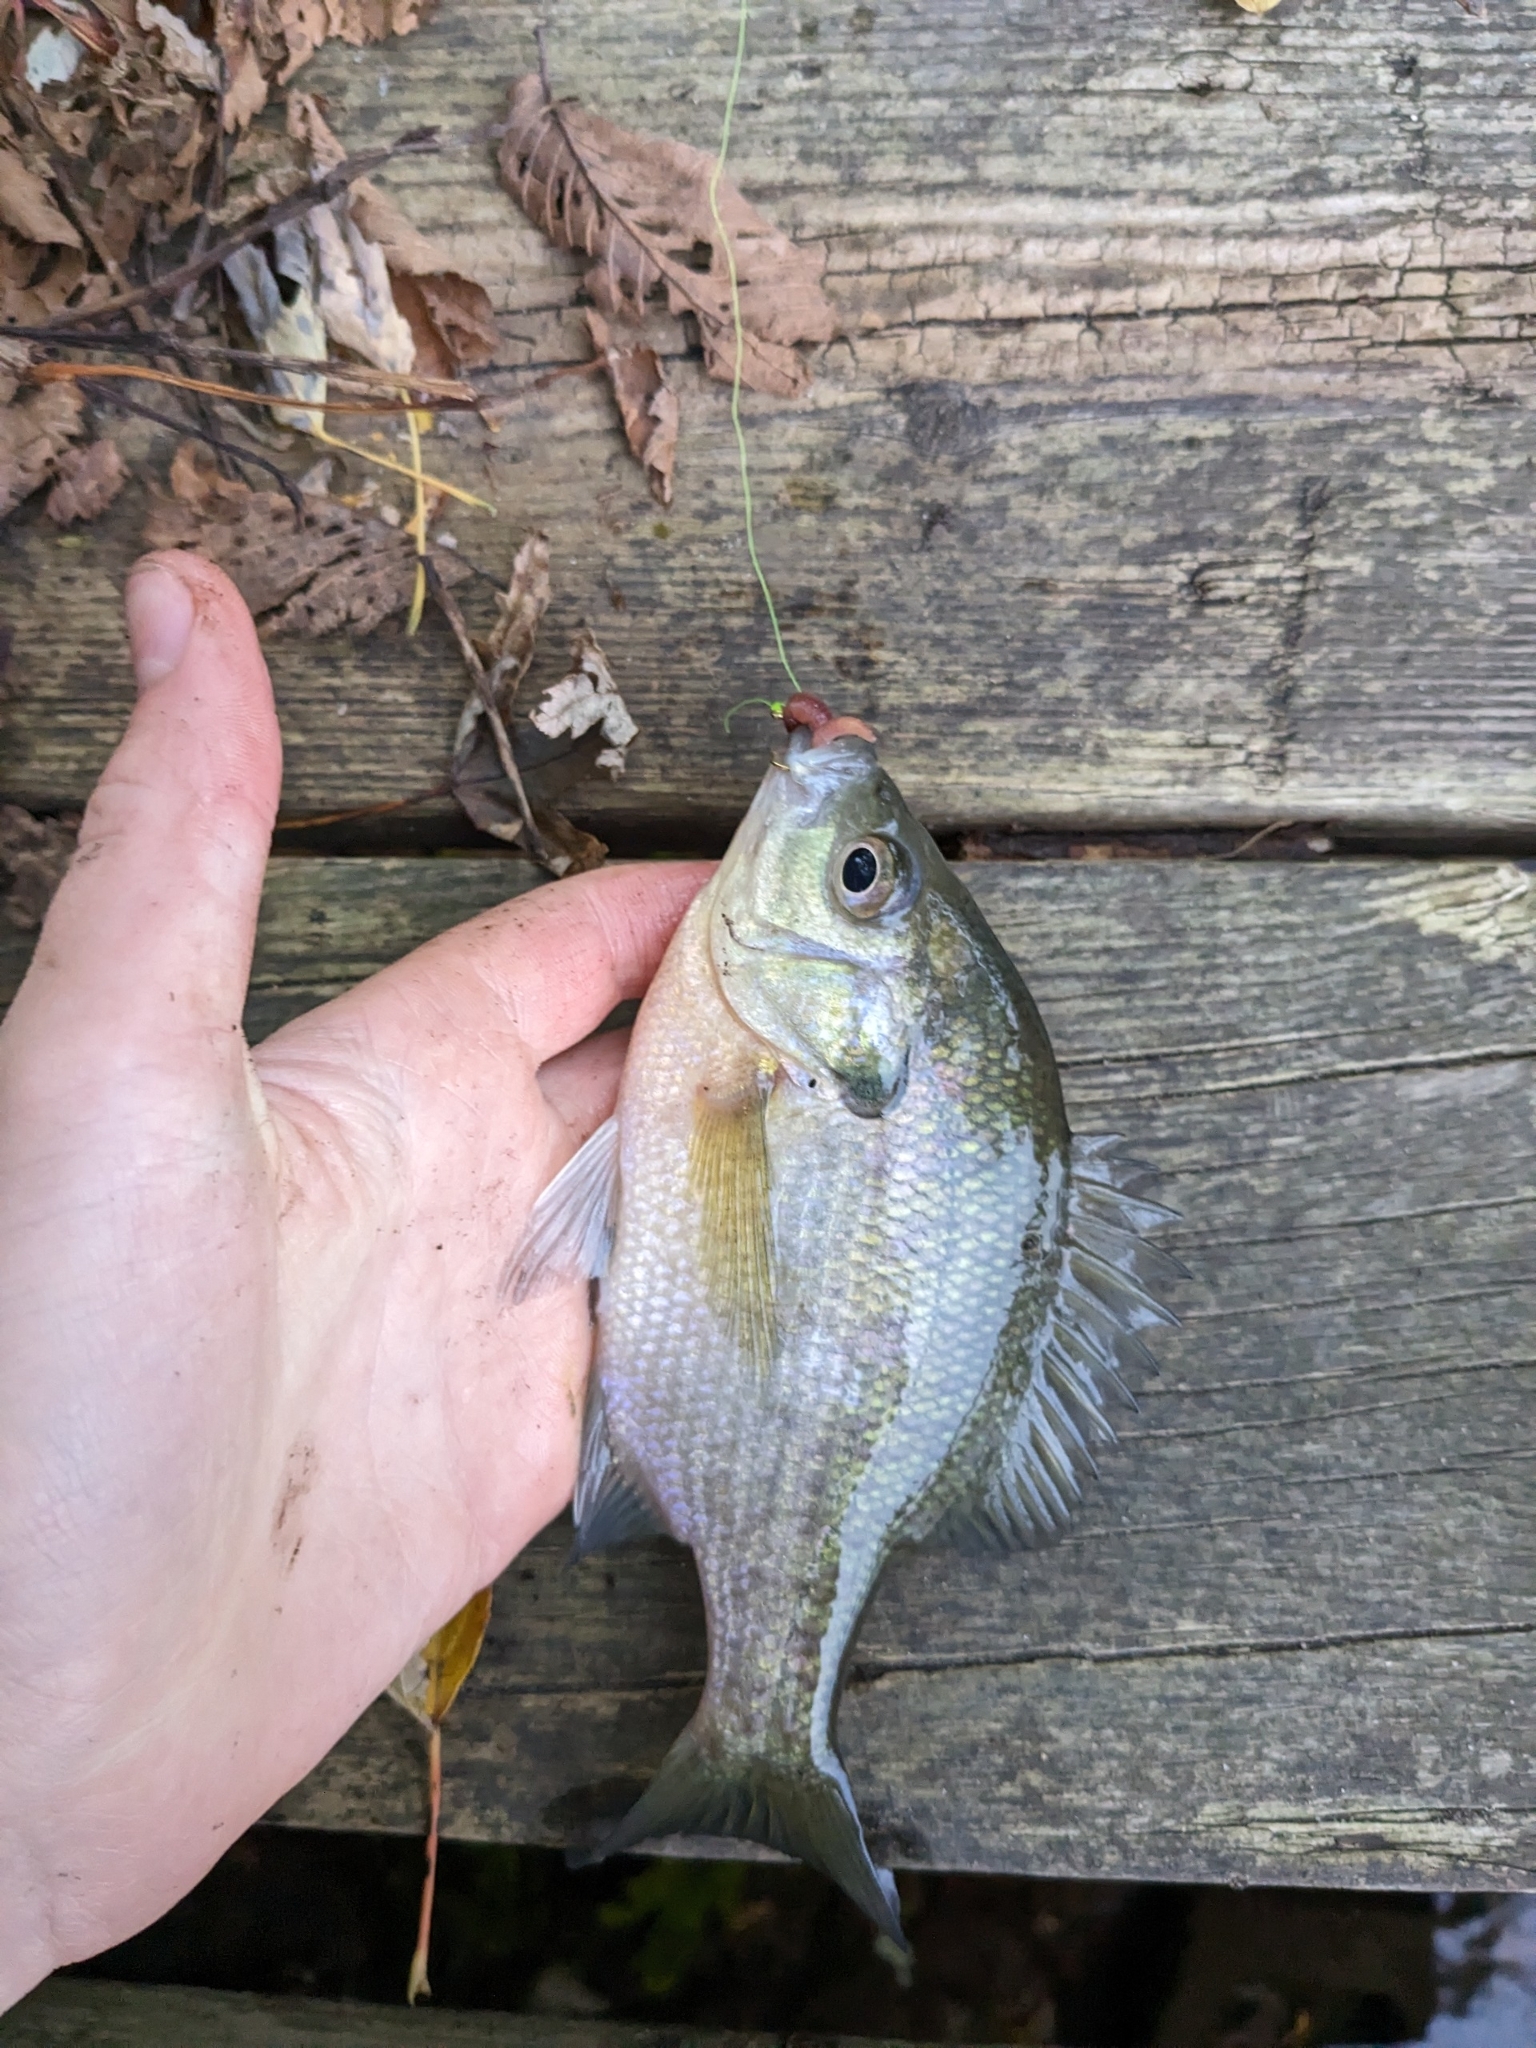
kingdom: Animalia
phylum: Chordata
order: Perciformes
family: Centrarchidae
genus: Lepomis
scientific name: Lepomis macrochirus
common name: Bluegill
